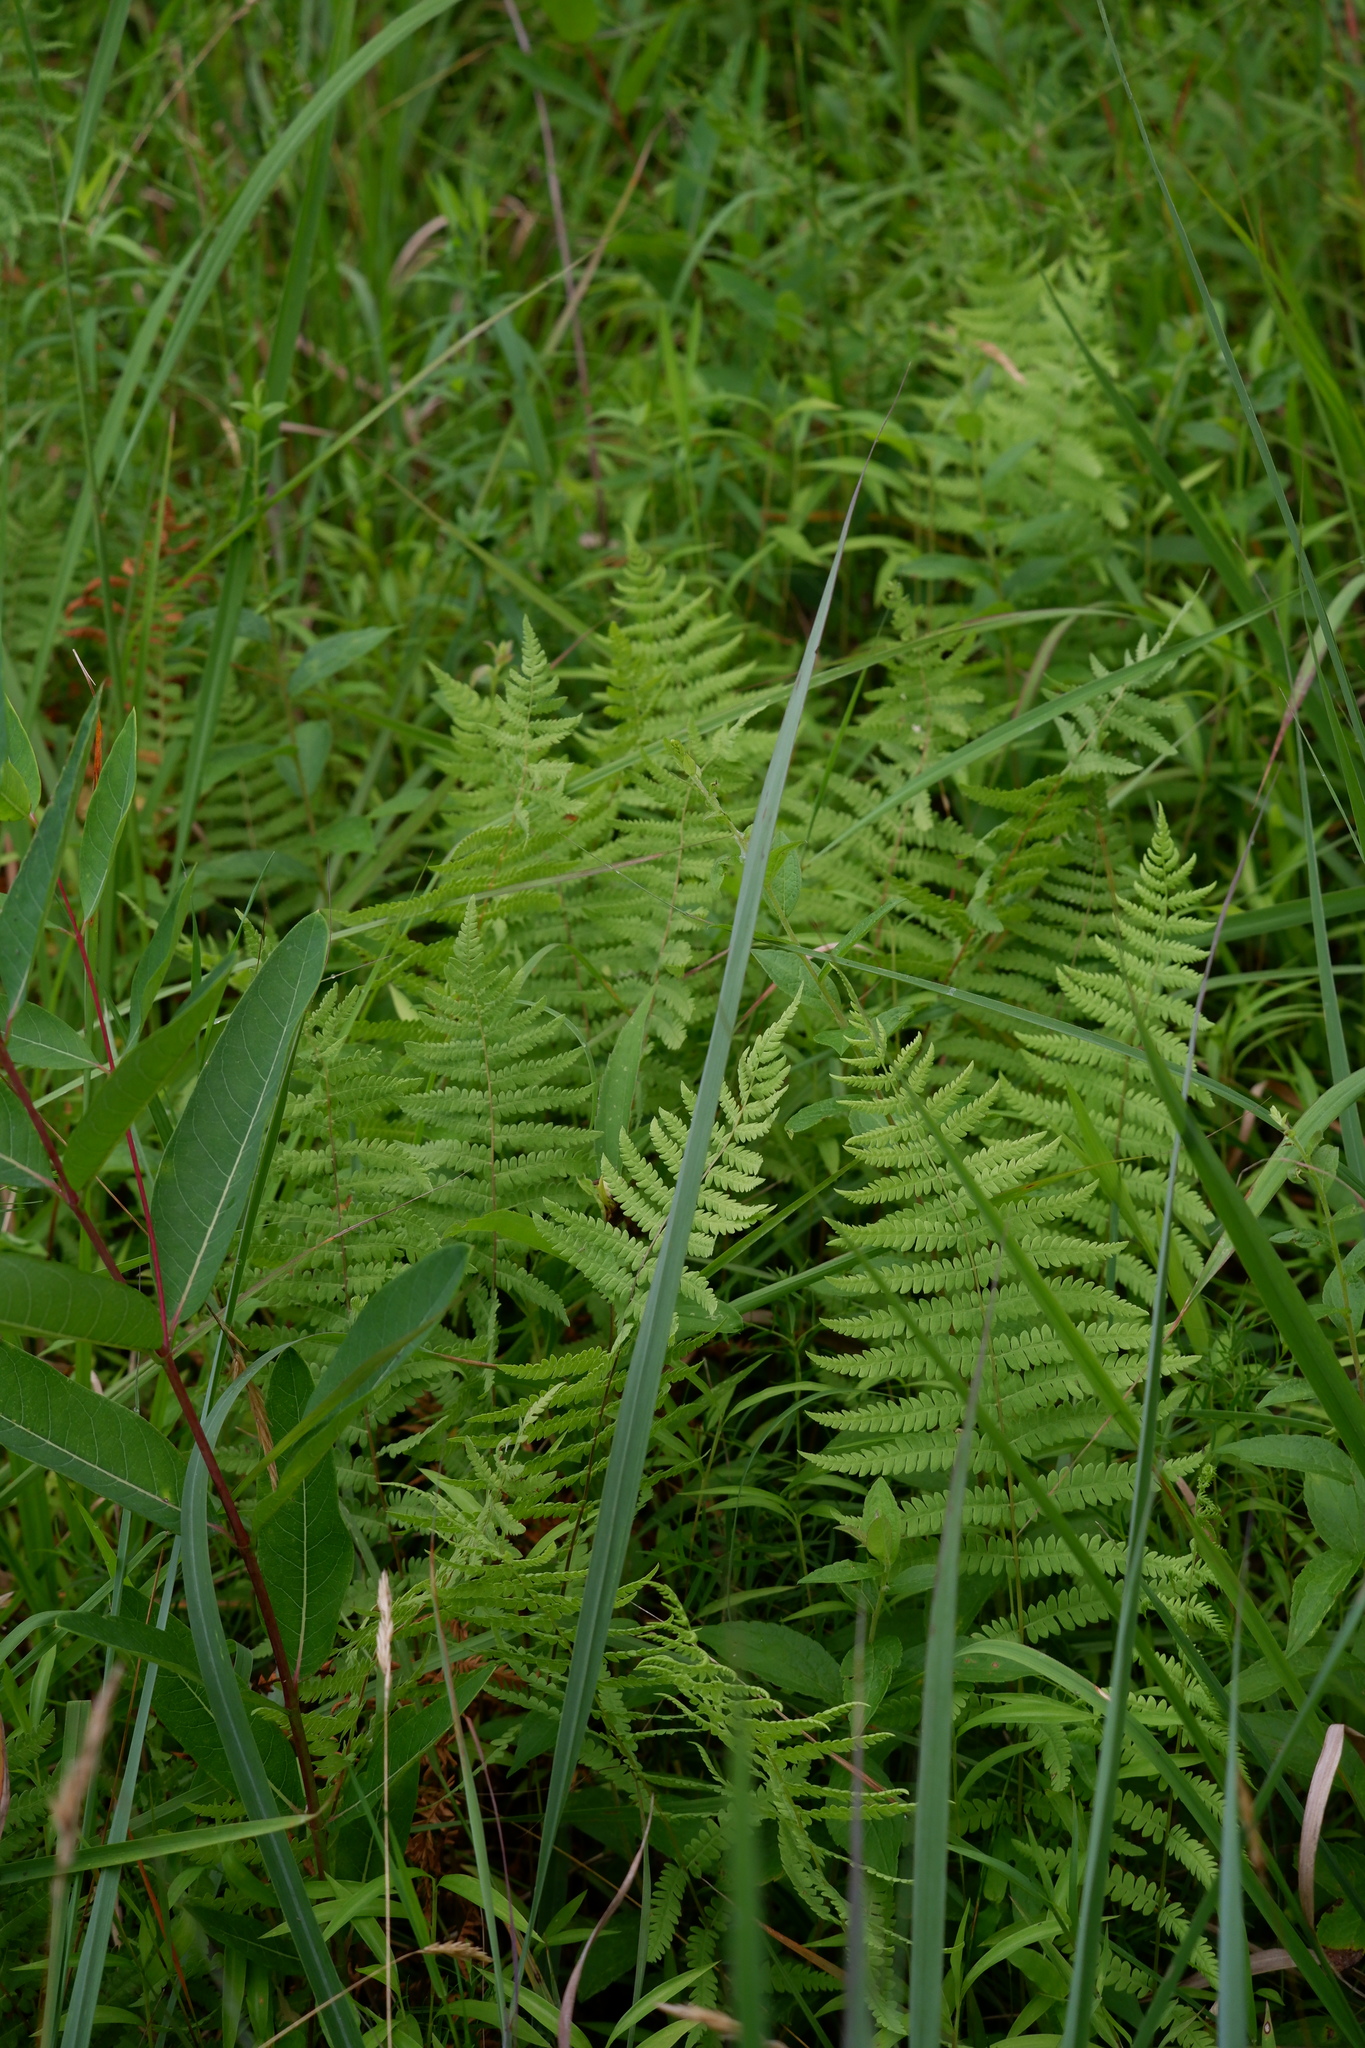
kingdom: Plantae
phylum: Tracheophyta
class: Polypodiopsida
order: Polypodiales
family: Thelypteridaceae
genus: Thelypteris
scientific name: Thelypteris palustris
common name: Marsh fern
